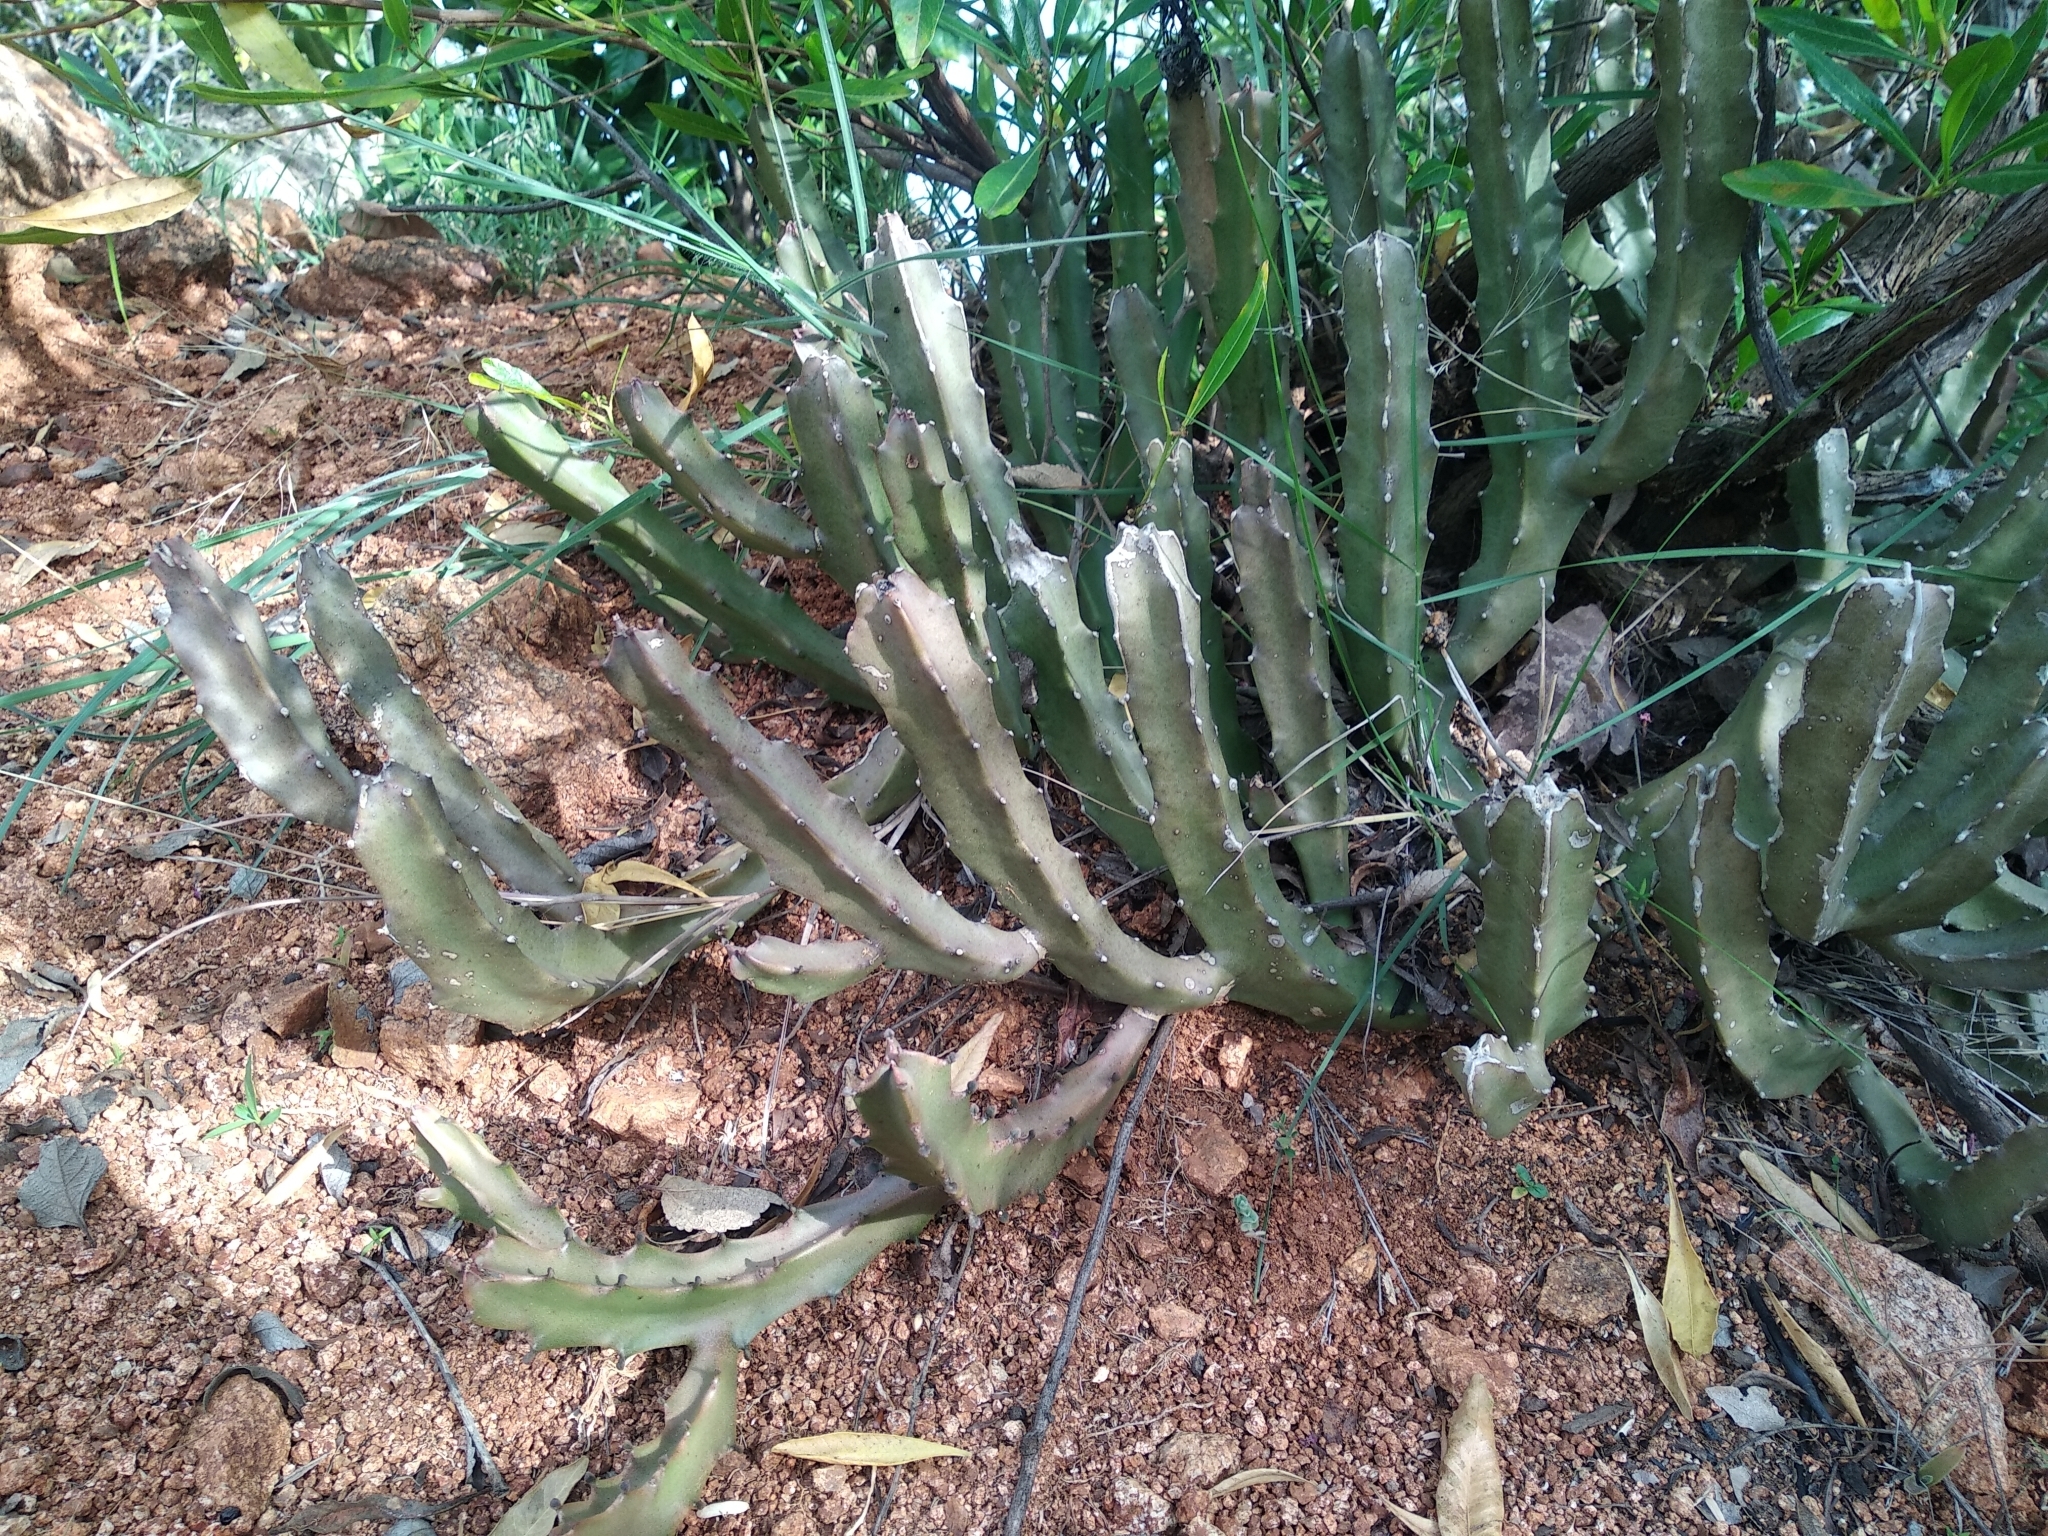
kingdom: Plantae
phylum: Tracheophyta
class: Magnoliopsida
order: Gentianales
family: Apocynaceae
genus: Ceropegia
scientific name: Ceropegia umbellata
